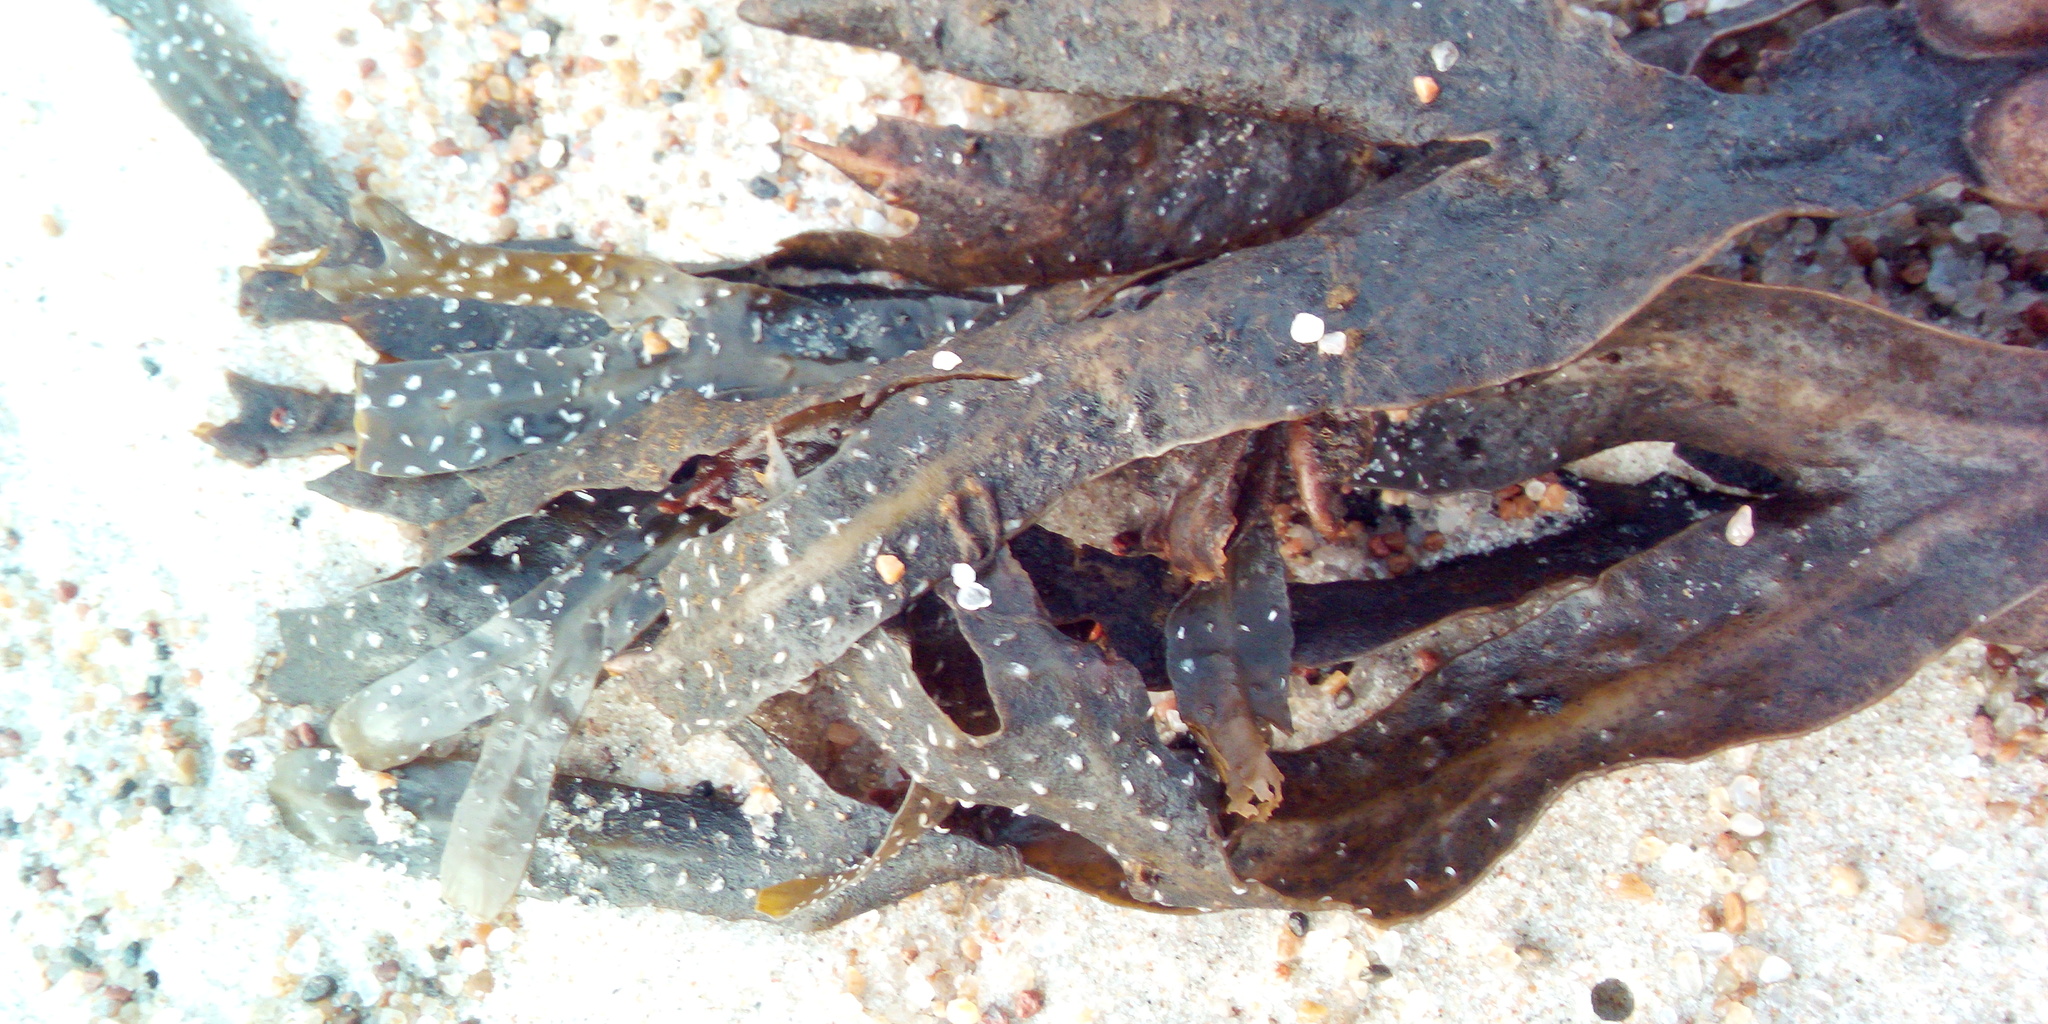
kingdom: Chromista
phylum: Ochrophyta
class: Phaeophyceae
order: Fucales
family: Fucaceae
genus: Fucus
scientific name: Fucus vesiculosus
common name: Bladder wrack
